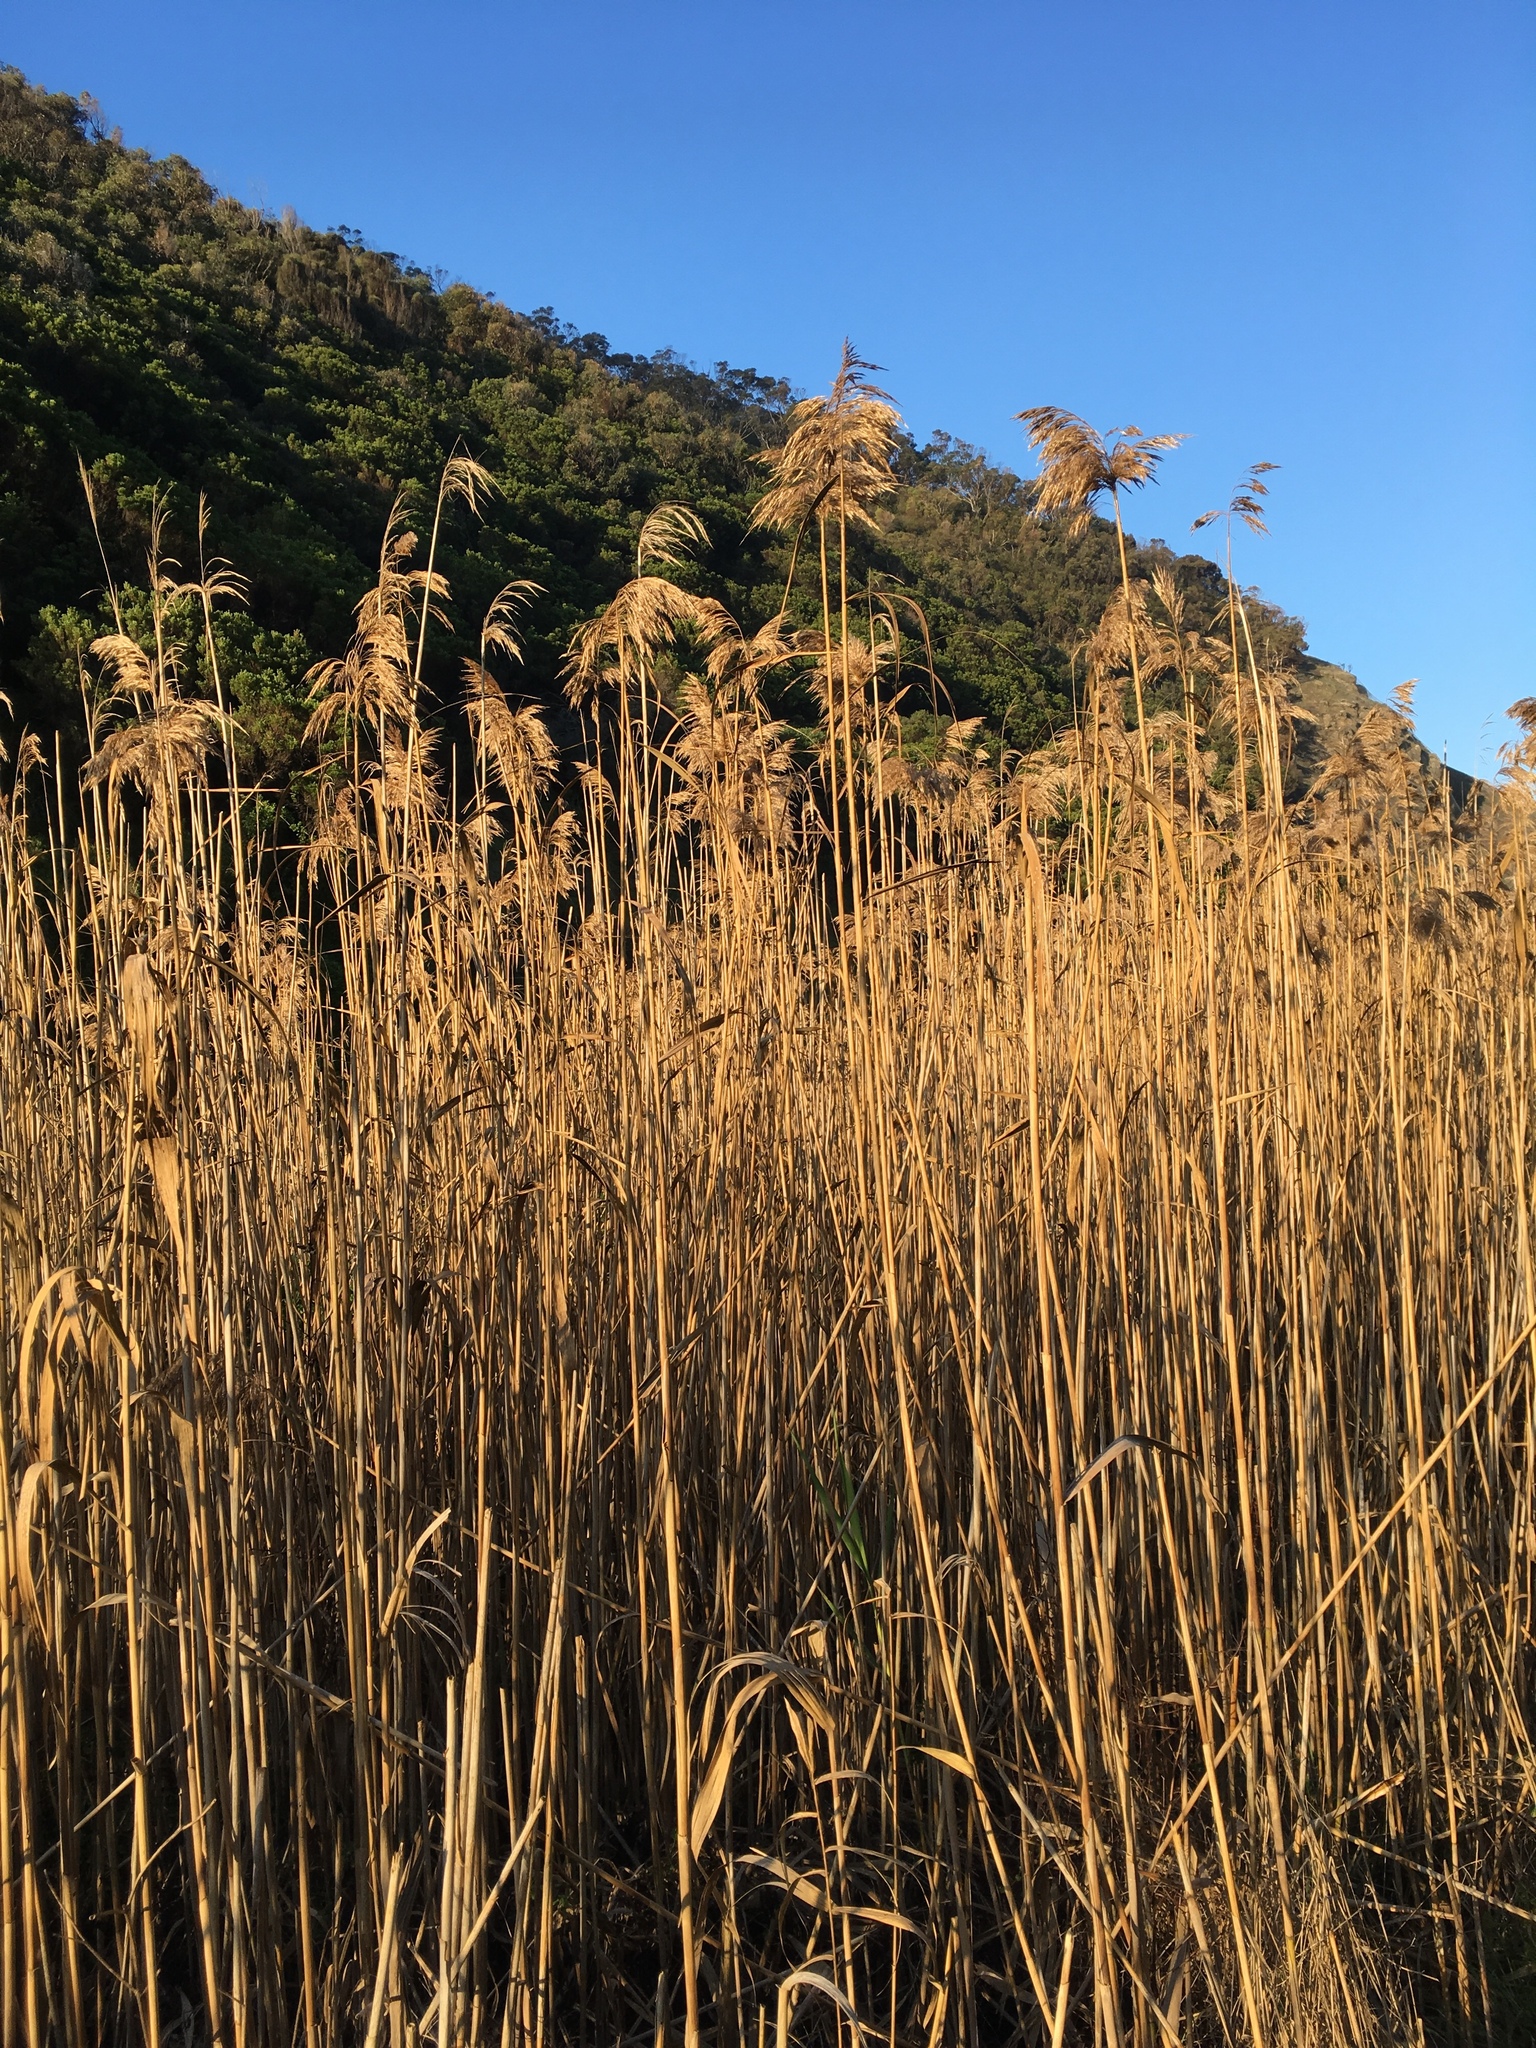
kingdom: Plantae
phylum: Tracheophyta
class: Liliopsida
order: Poales
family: Poaceae
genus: Phragmites
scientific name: Phragmites australis
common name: Common reed
